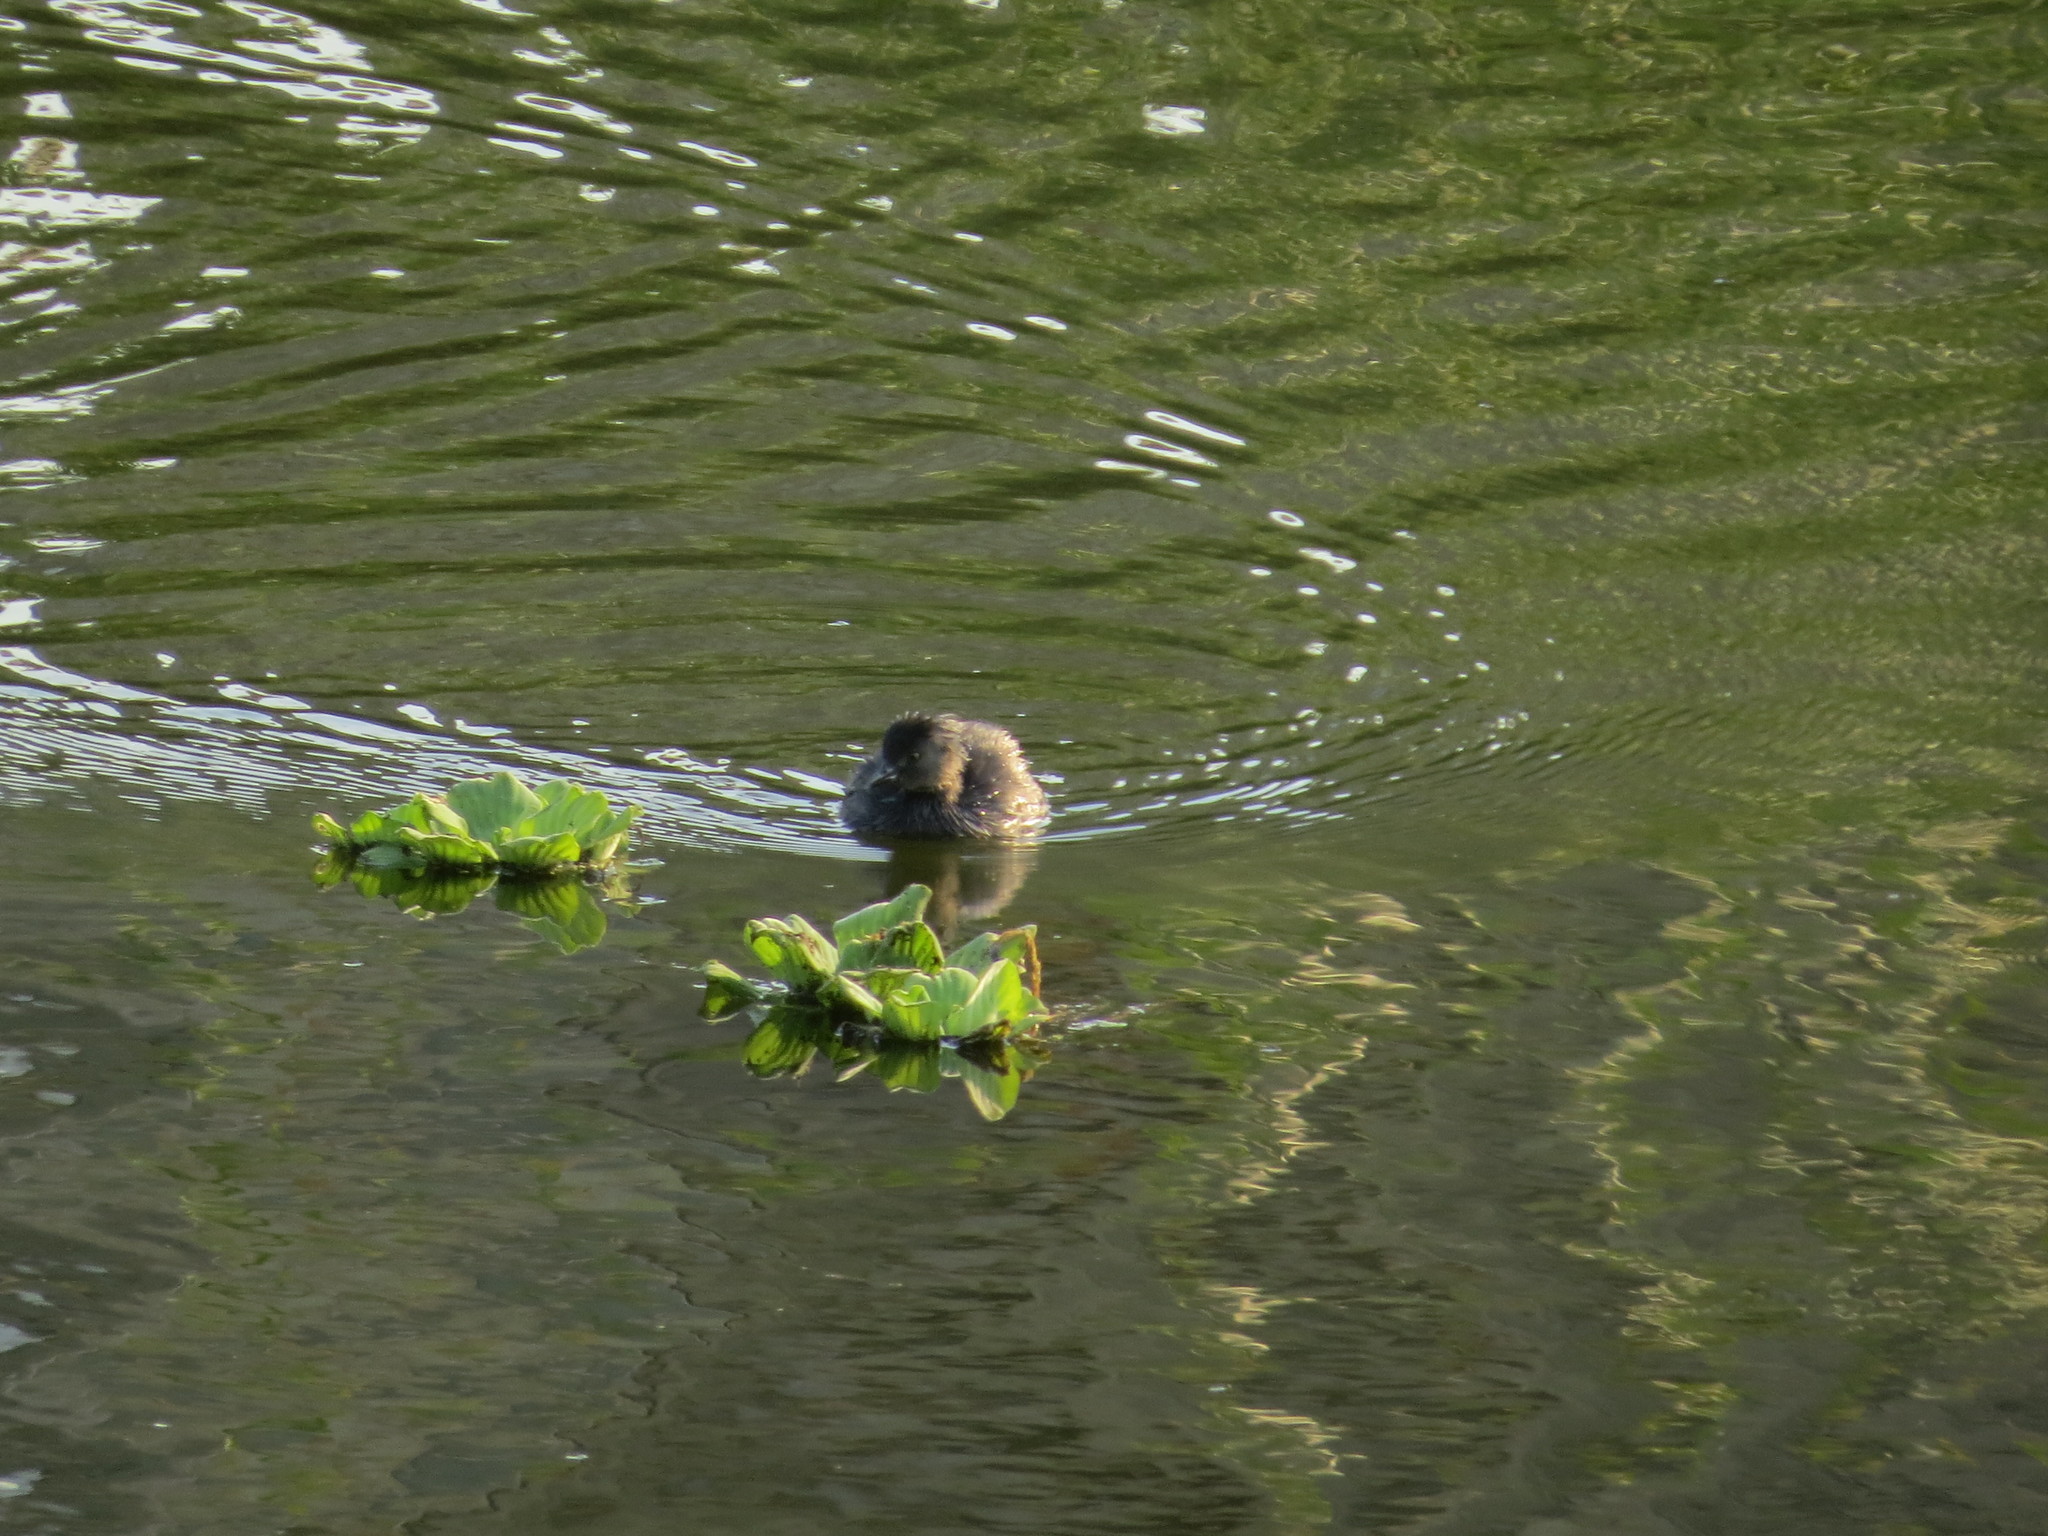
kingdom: Animalia
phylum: Chordata
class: Aves
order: Podicipediformes
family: Podicipedidae
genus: Tachybaptus
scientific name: Tachybaptus dominicus
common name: Least grebe
